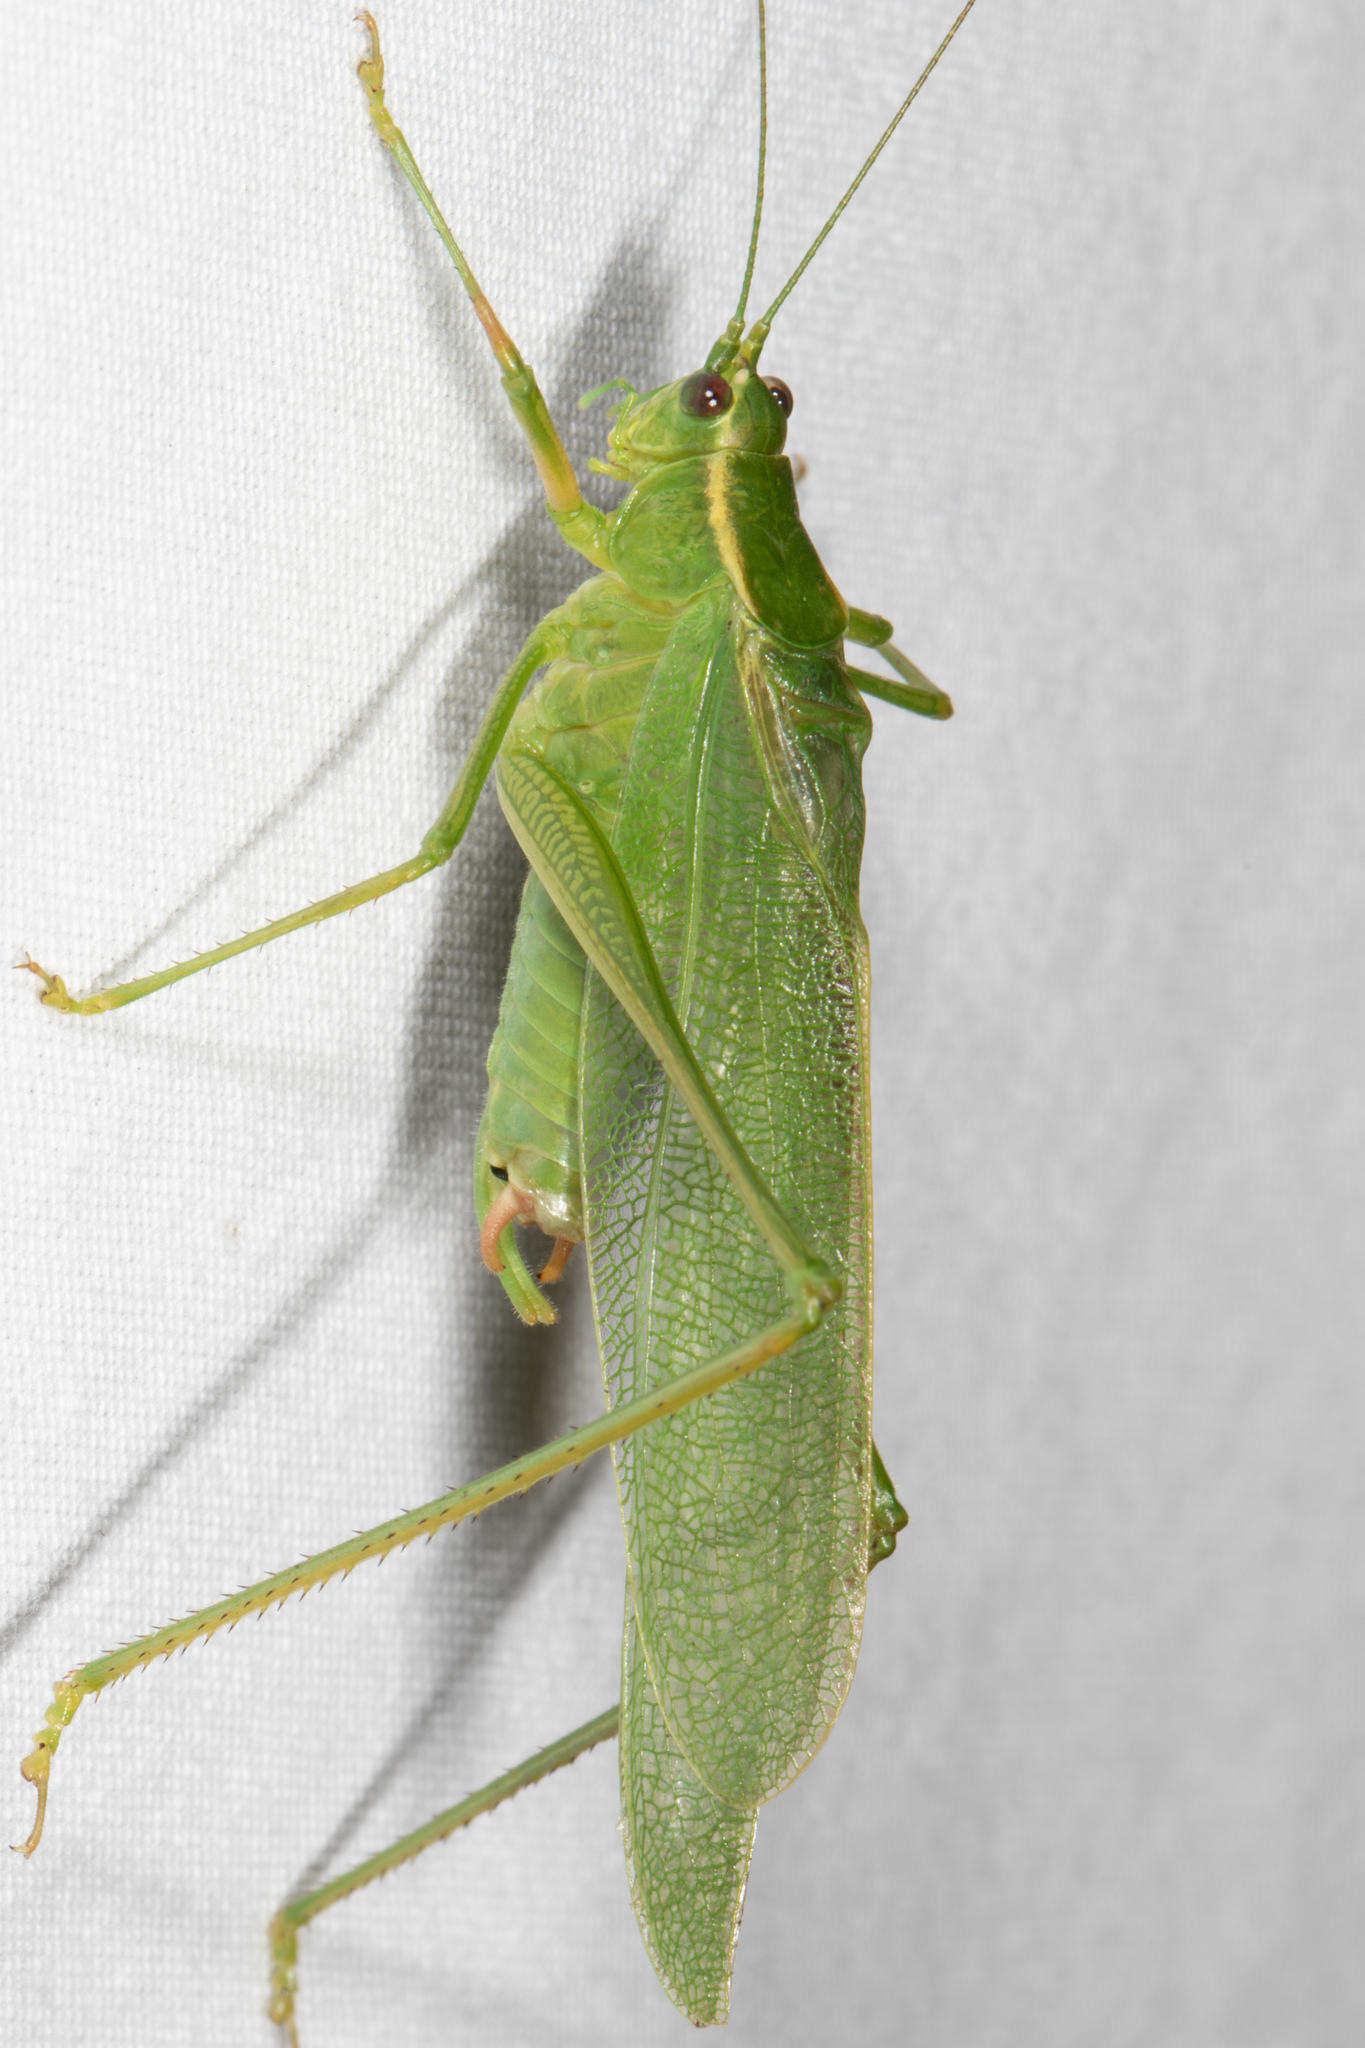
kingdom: Animalia
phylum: Arthropoda
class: Insecta
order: Orthoptera
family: Tettigoniidae
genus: Scudderia
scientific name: Scudderia septentrionalis
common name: Northern bush-katydid
